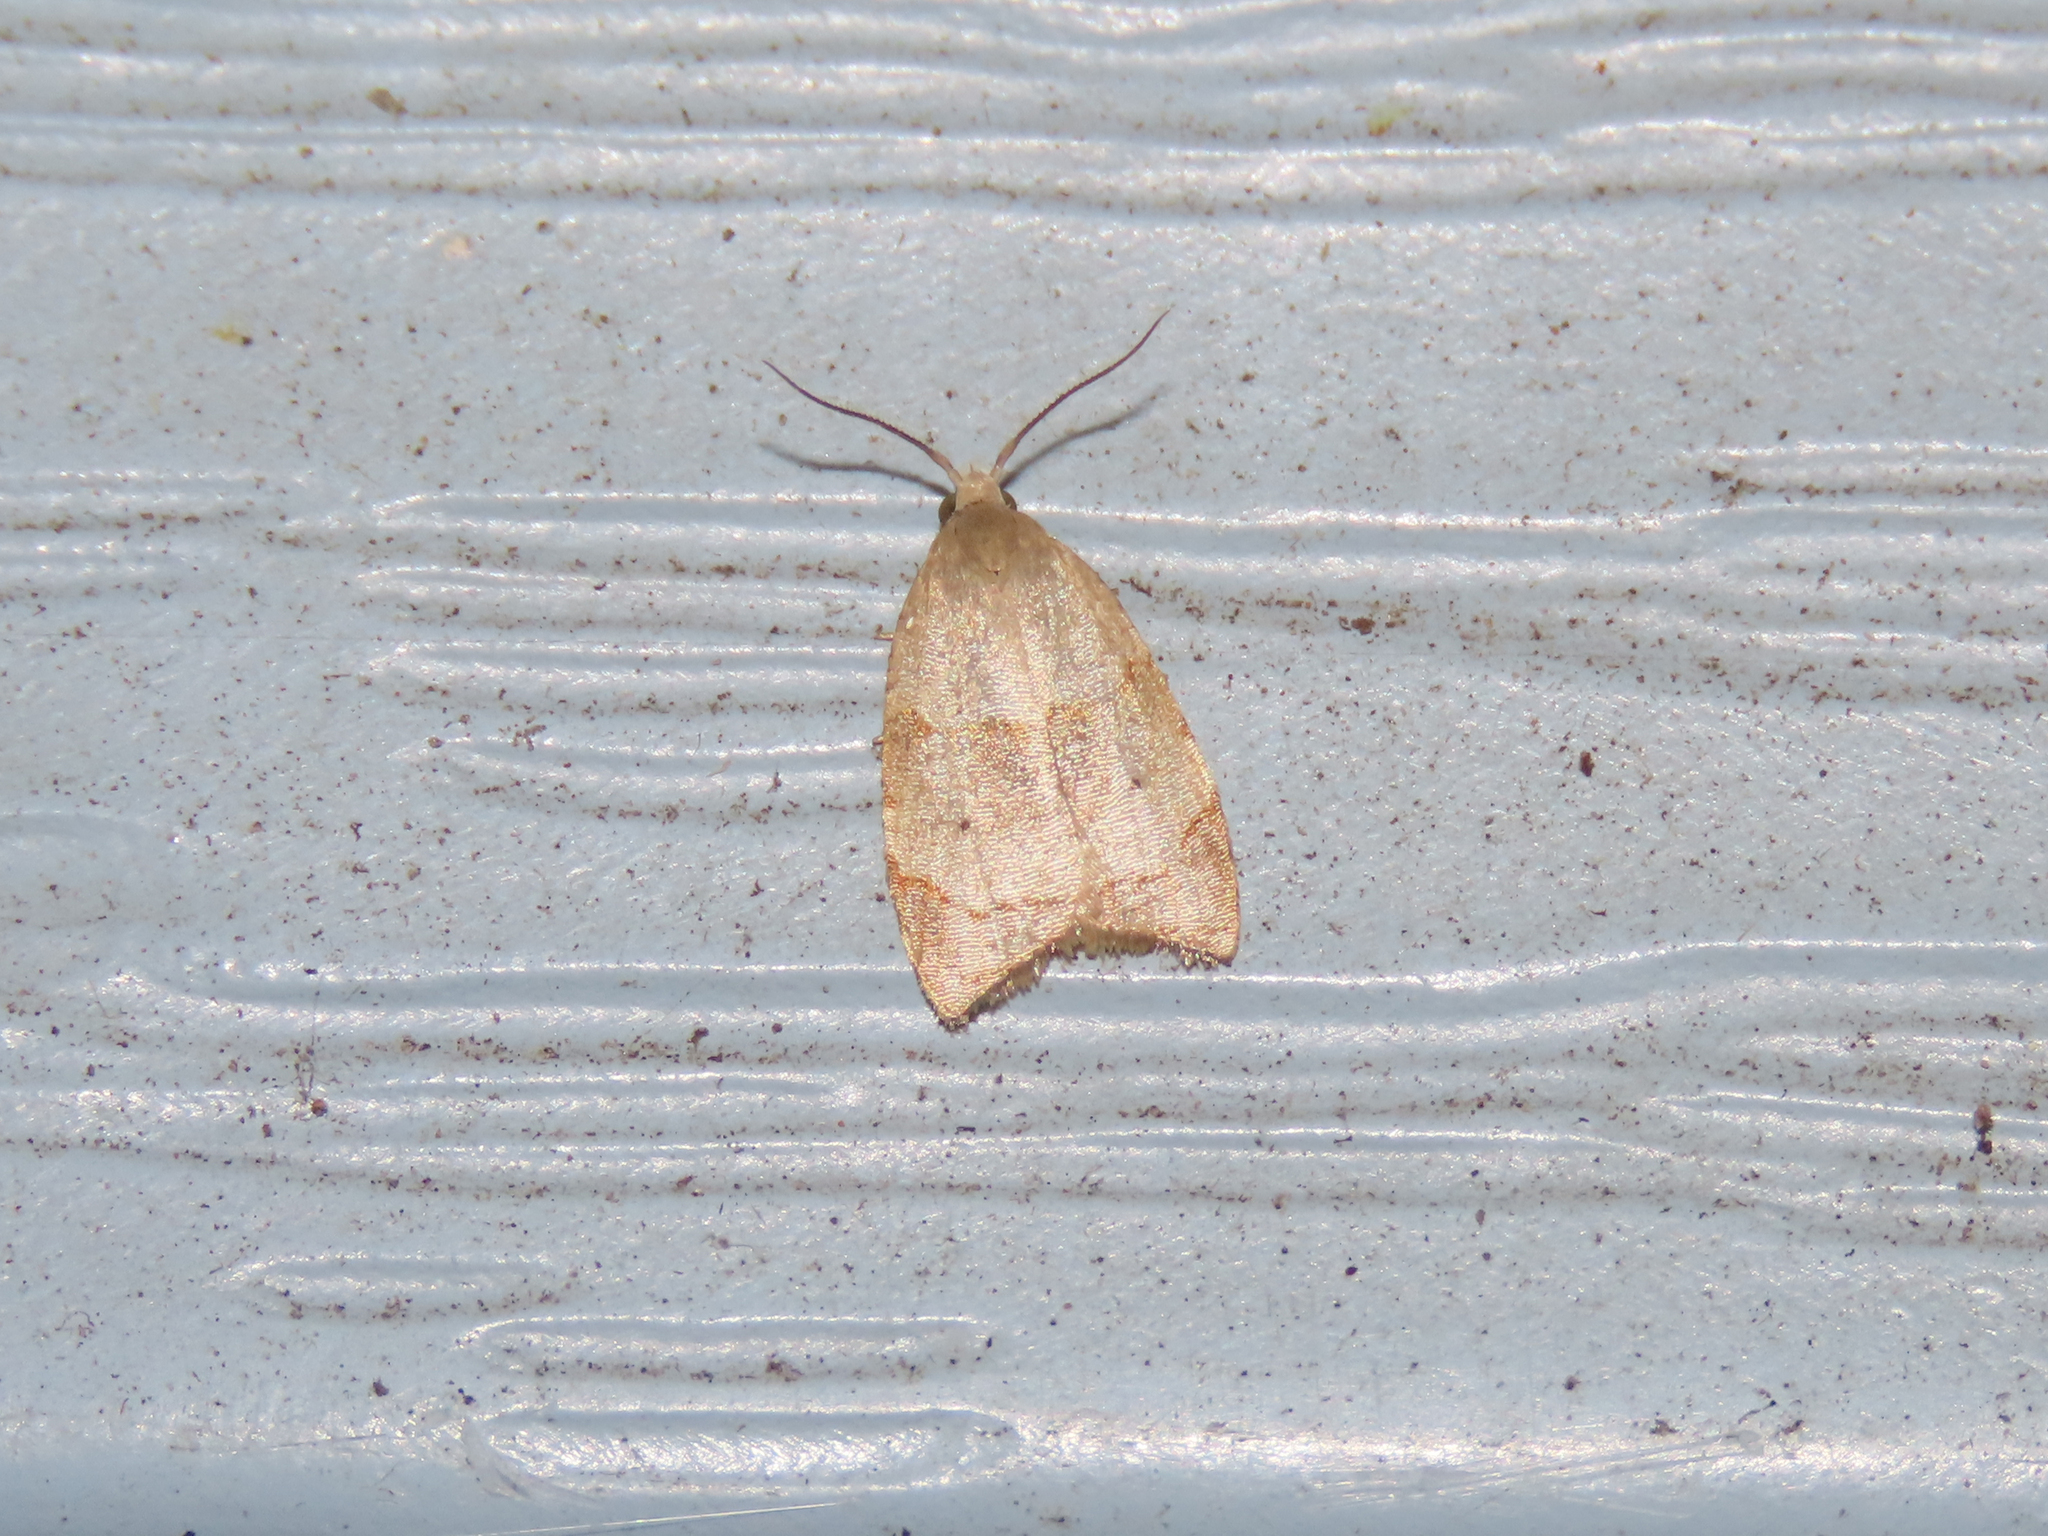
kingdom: Animalia
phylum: Arthropoda
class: Insecta
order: Lepidoptera
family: Tortricidae
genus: Coelostathma
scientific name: Coelostathma discopunctana
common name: Batman moth
